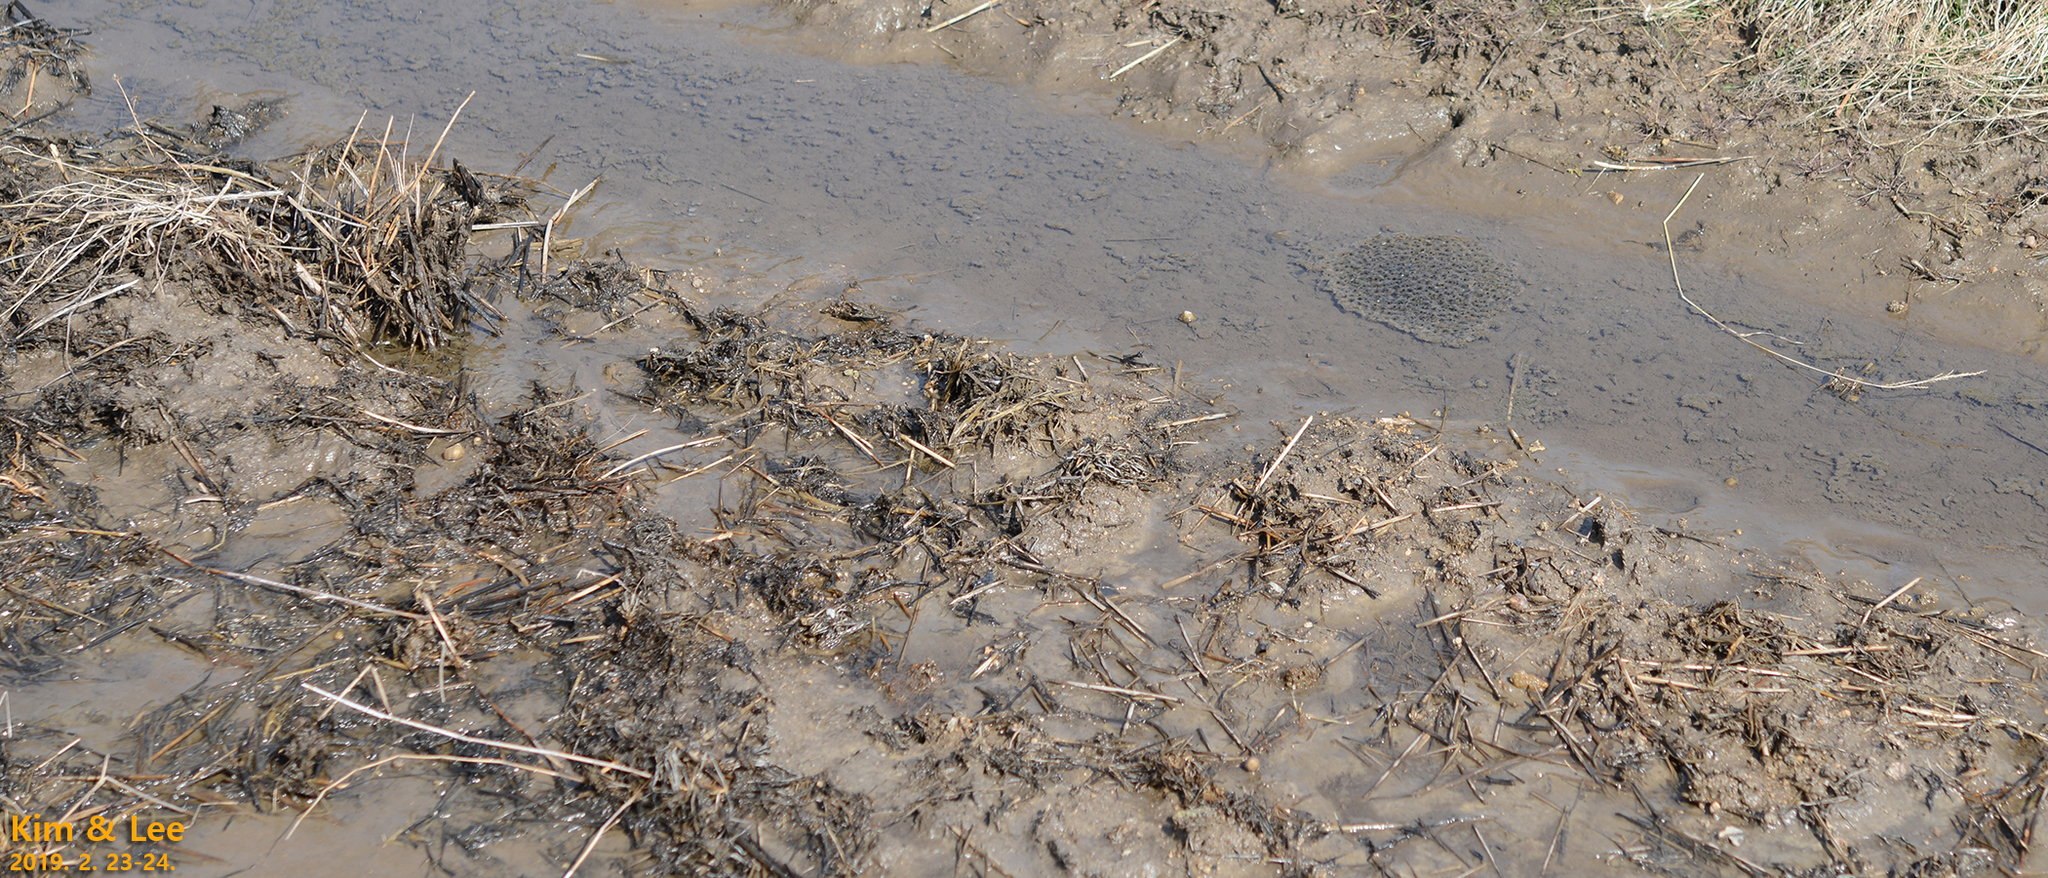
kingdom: Animalia
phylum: Chordata
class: Amphibia
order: Anura
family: Ranidae
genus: Rana
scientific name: Rana uenoi
